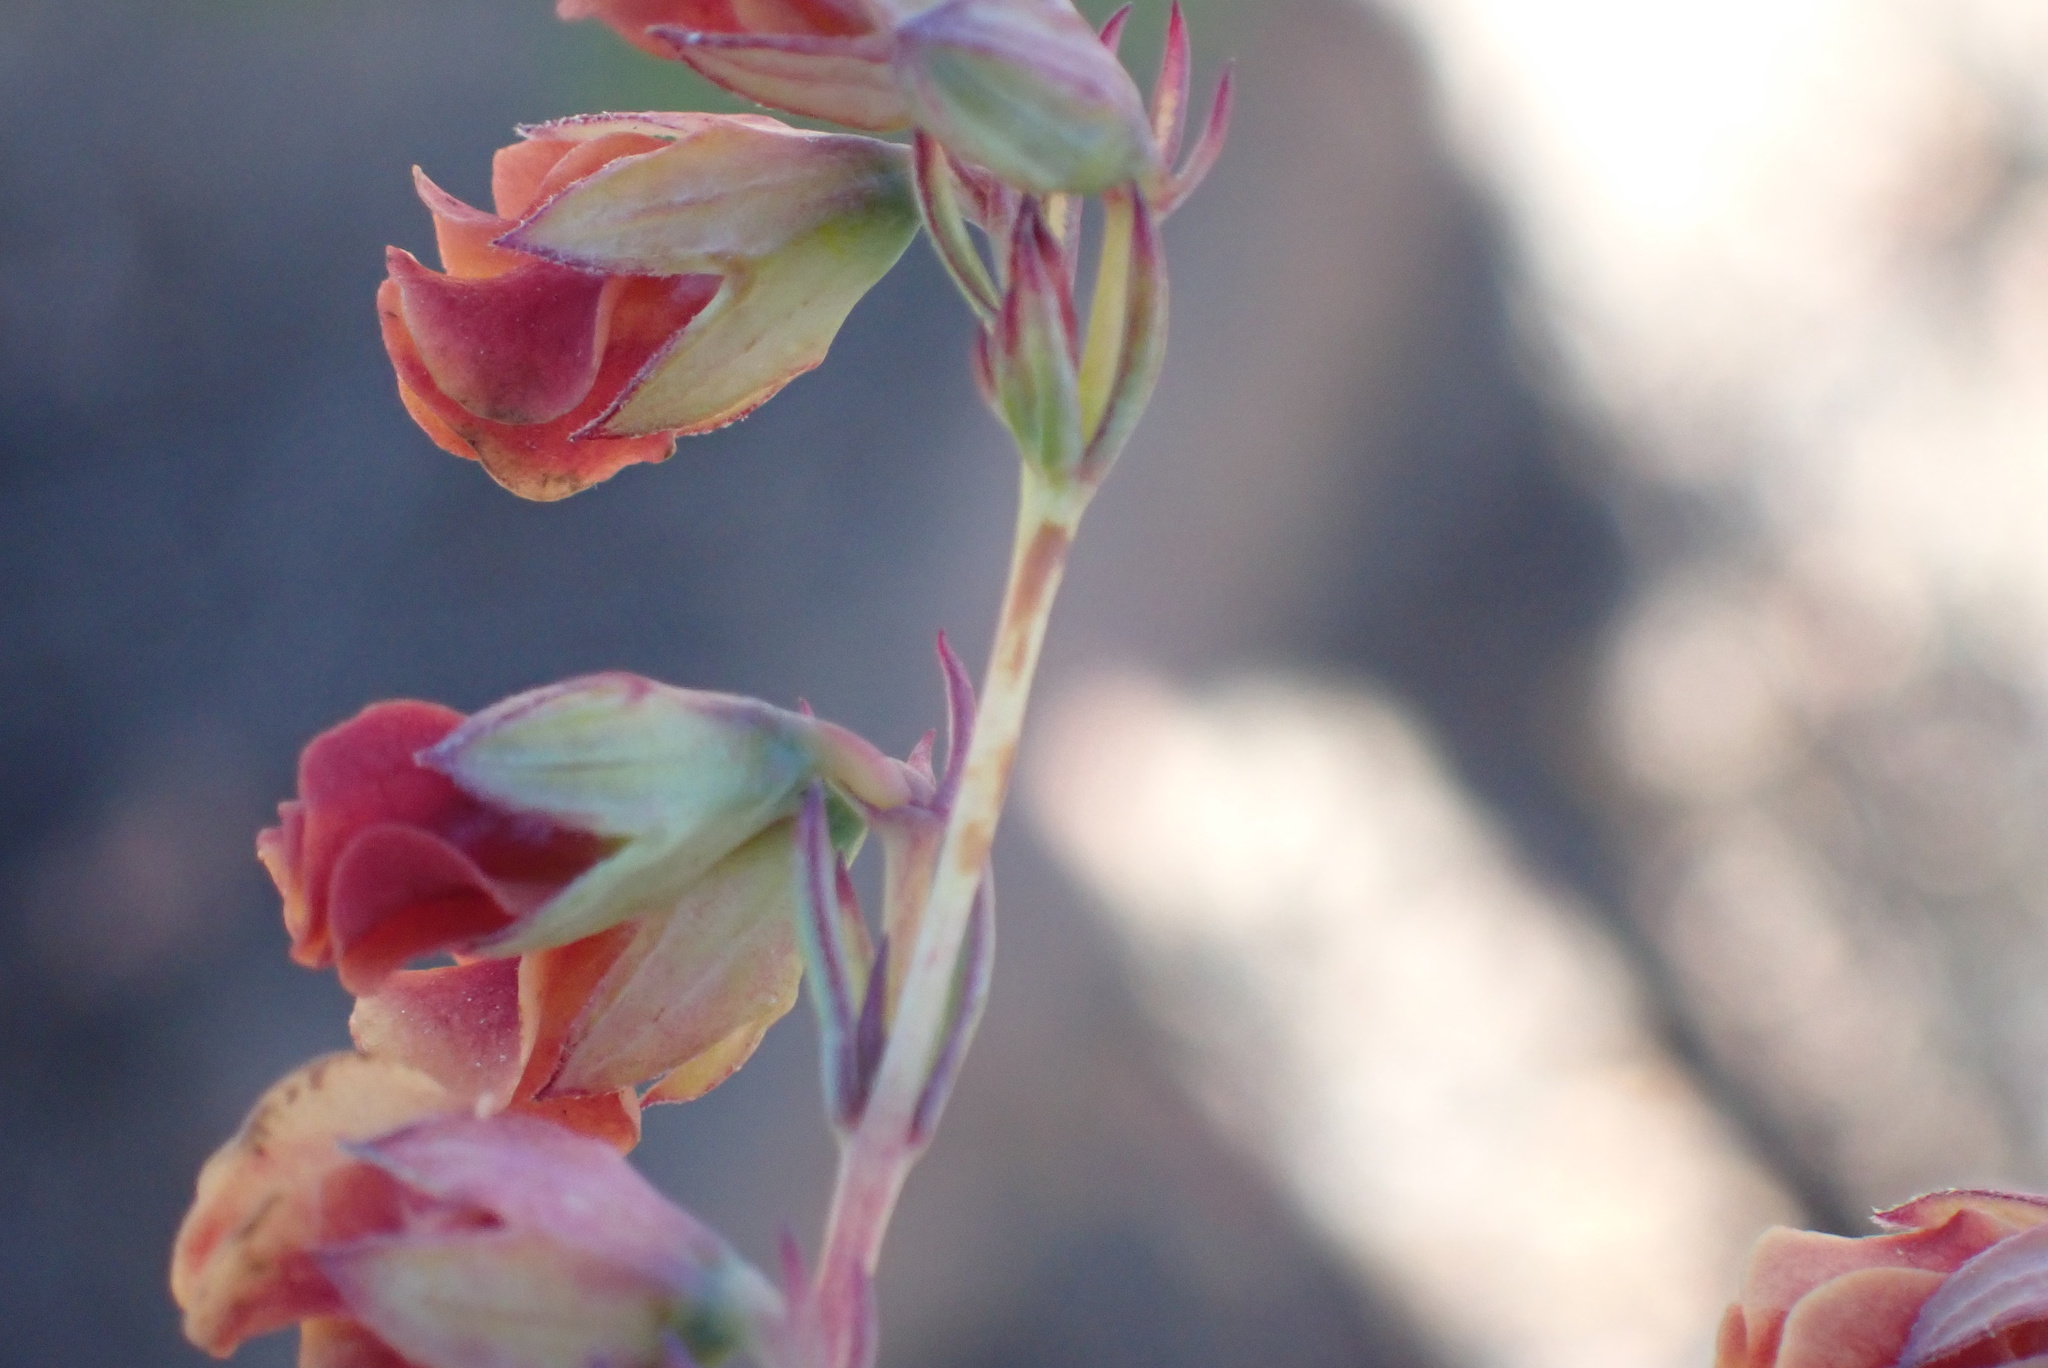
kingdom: Plantae
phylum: Tracheophyta
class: Magnoliopsida
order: Malvales
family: Malvaceae
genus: Hermannia
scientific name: Hermannia filifolia
